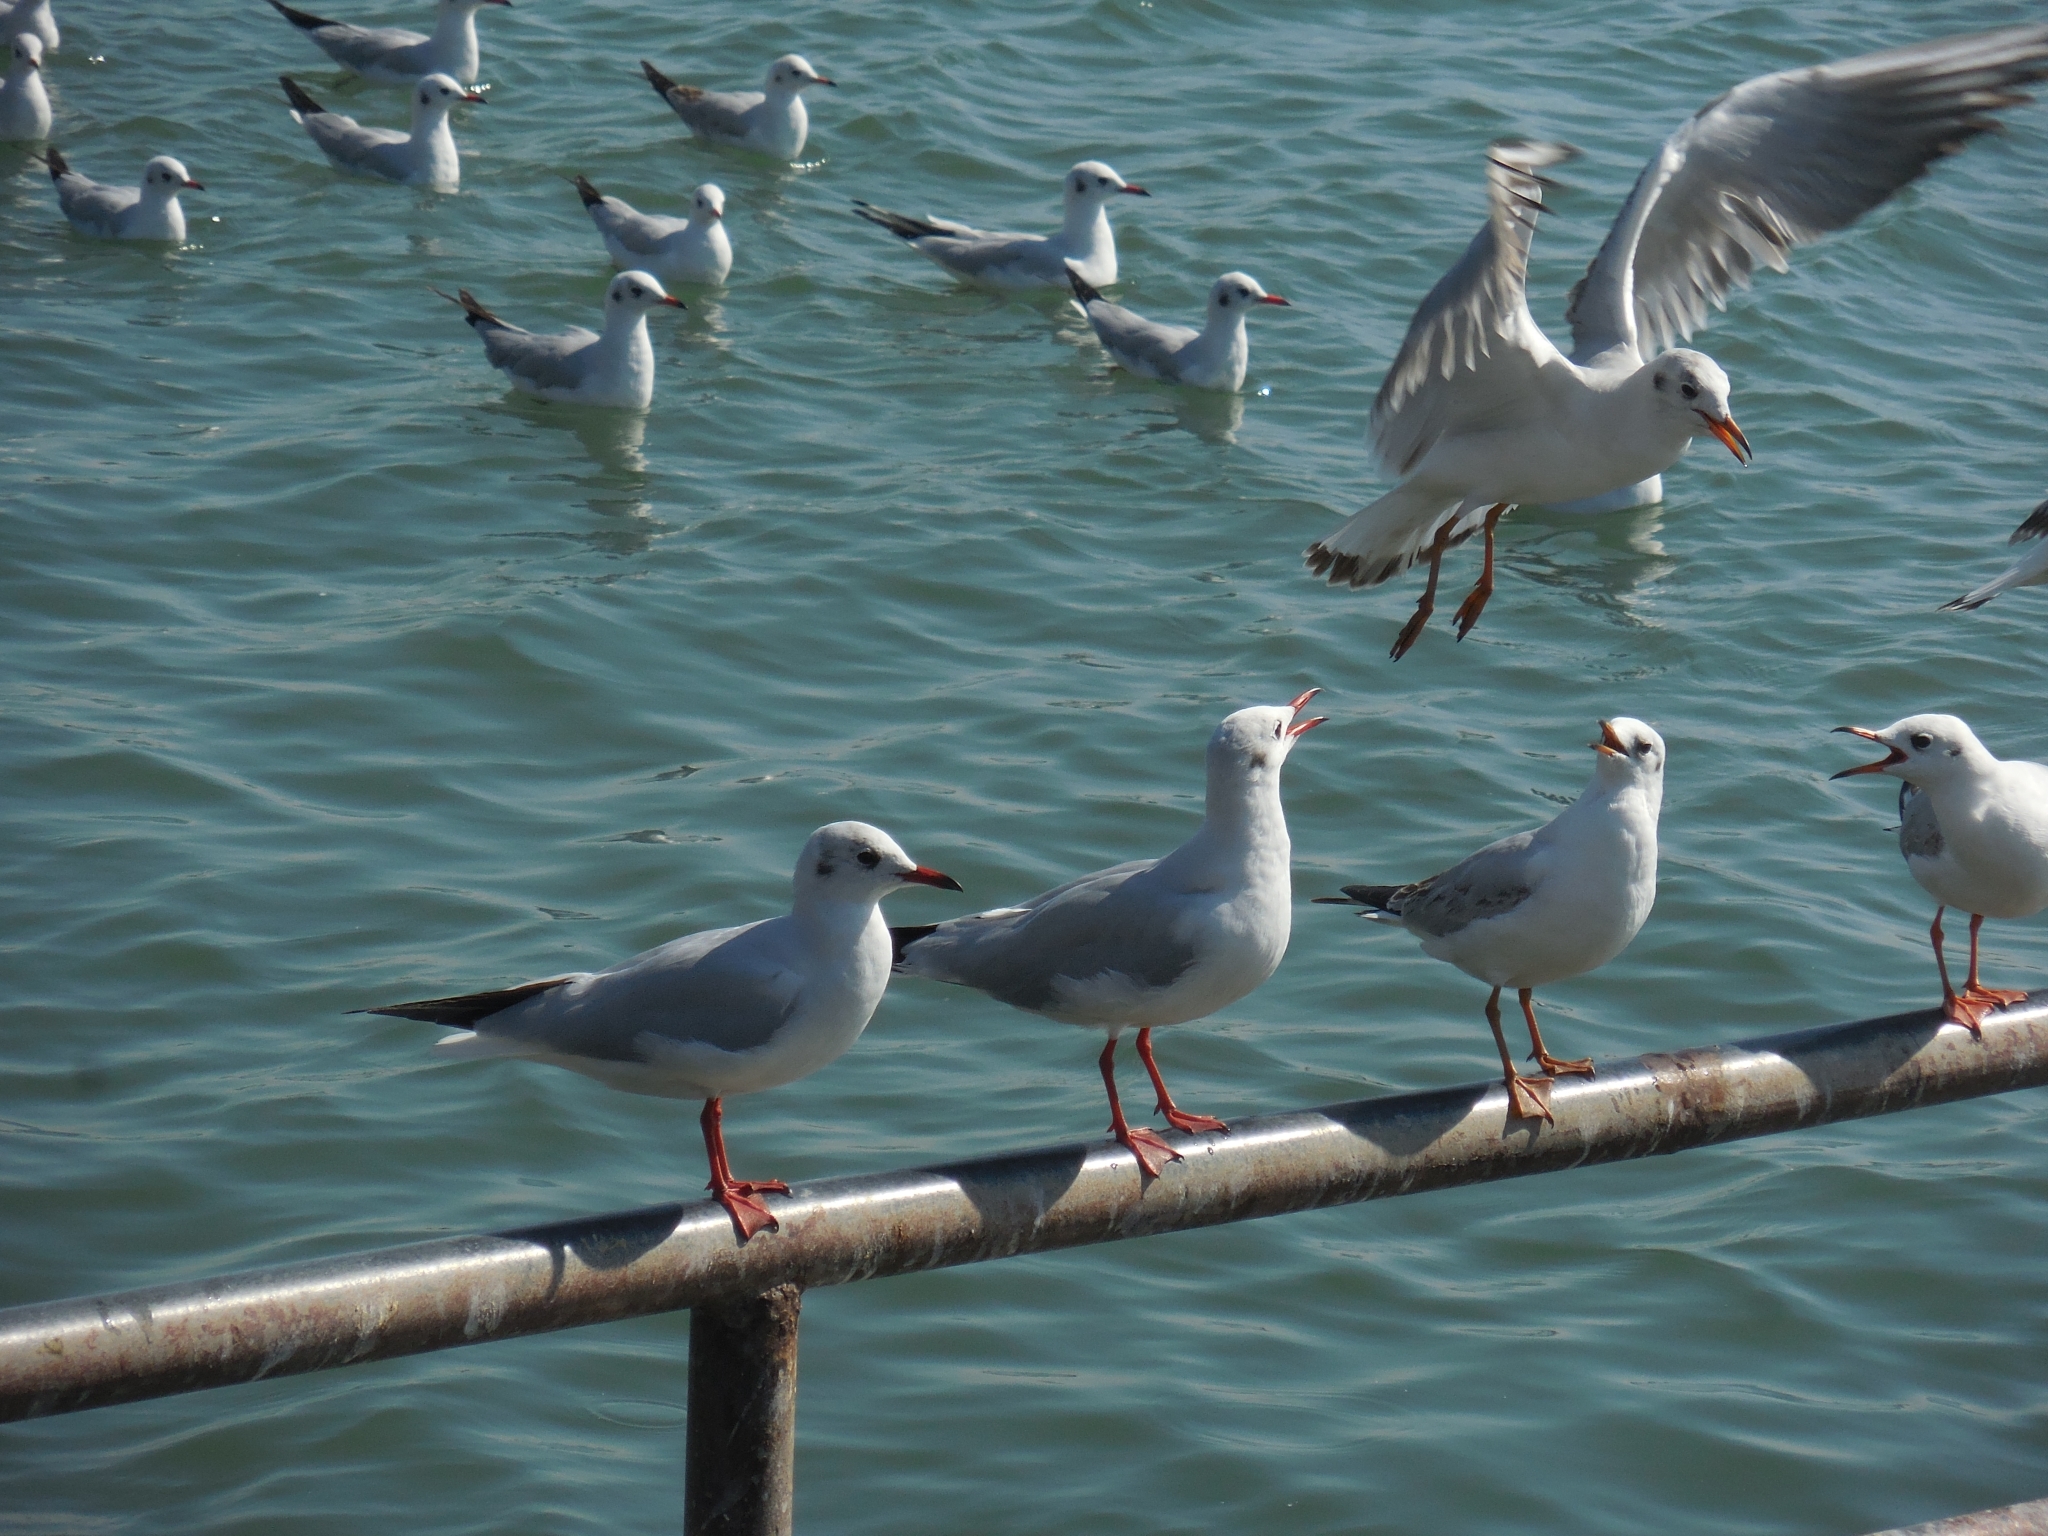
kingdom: Animalia
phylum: Chordata
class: Aves
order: Charadriiformes
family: Laridae
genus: Chroicocephalus
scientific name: Chroicocephalus ridibundus
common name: Black-headed gull
